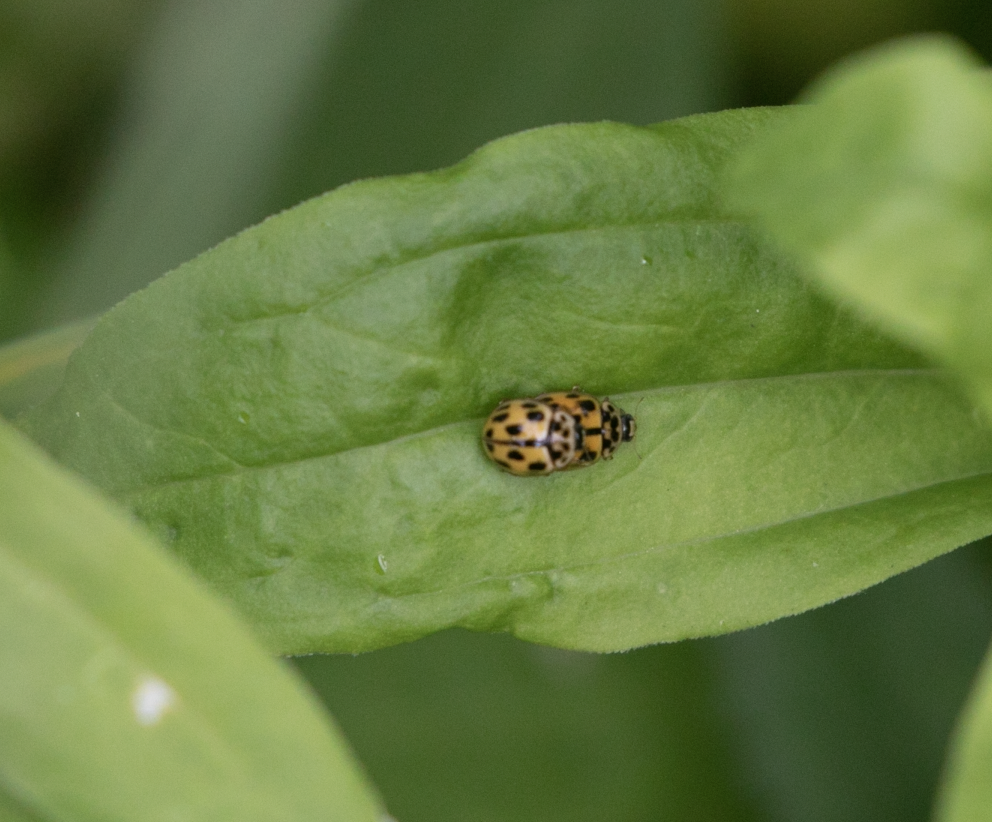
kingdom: Animalia
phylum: Arthropoda
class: Insecta
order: Coleoptera
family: Coccinellidae
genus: Propylaea
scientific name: Propylaea quatuordecimpunctata
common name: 14-spotted ladybird beetle
